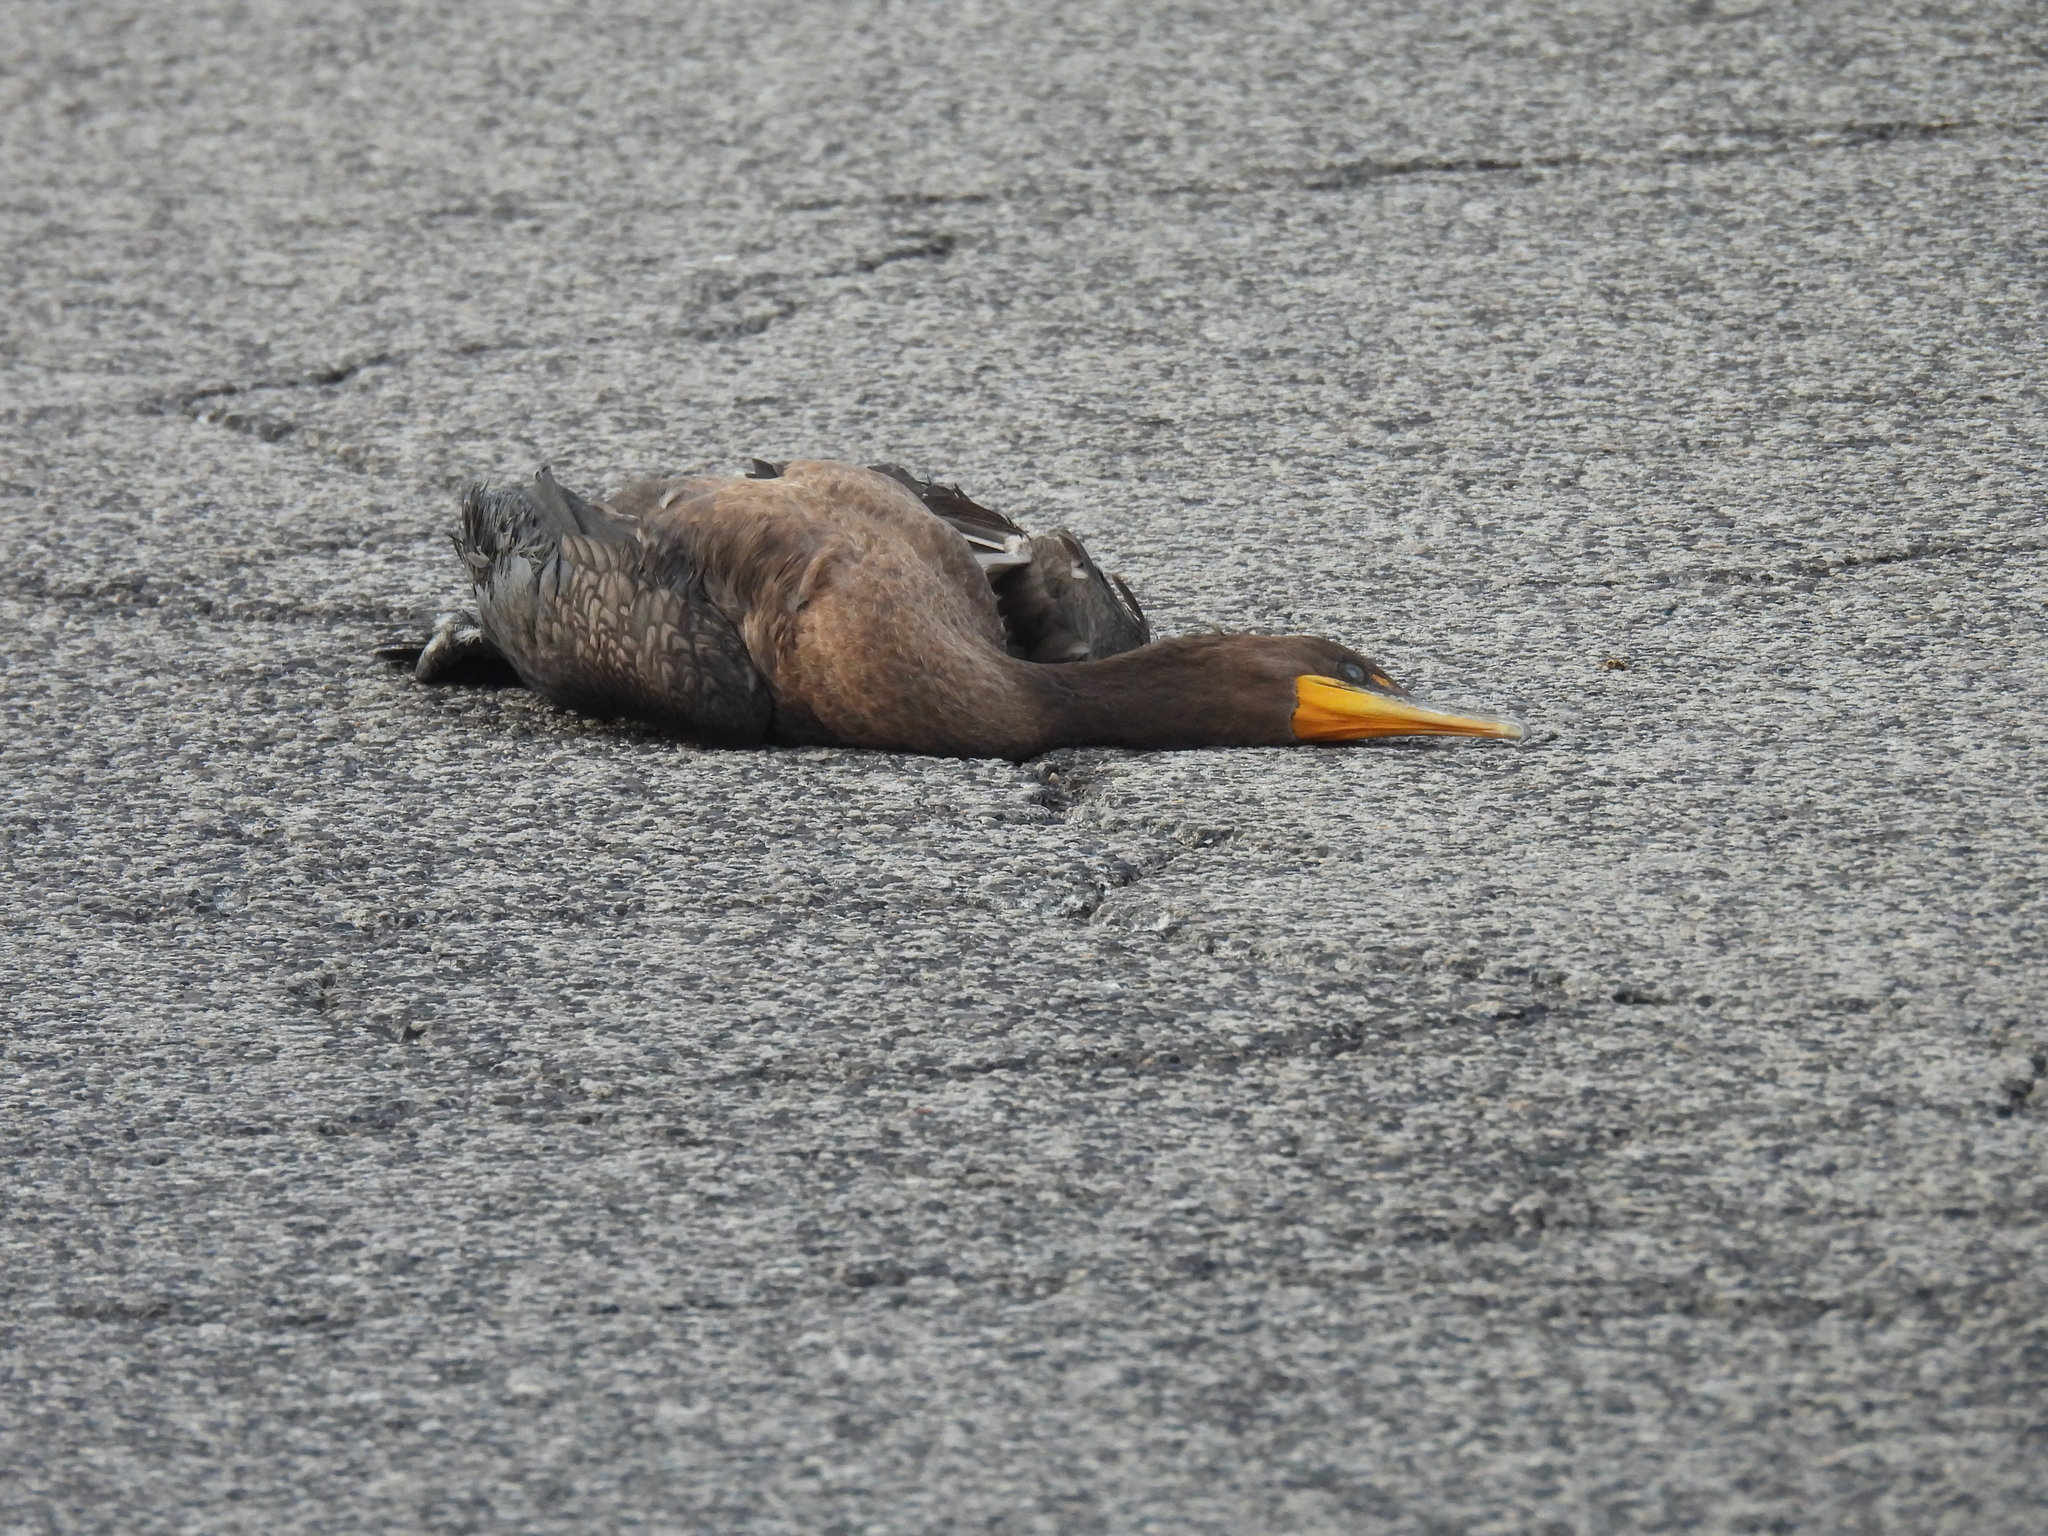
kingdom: Animalia
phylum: Chordata
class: Aves
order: Suliformes
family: Phalacrocoracidae
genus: Phalacrocorax
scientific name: Phalacrocorax auritus
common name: Double-crested cormorant
